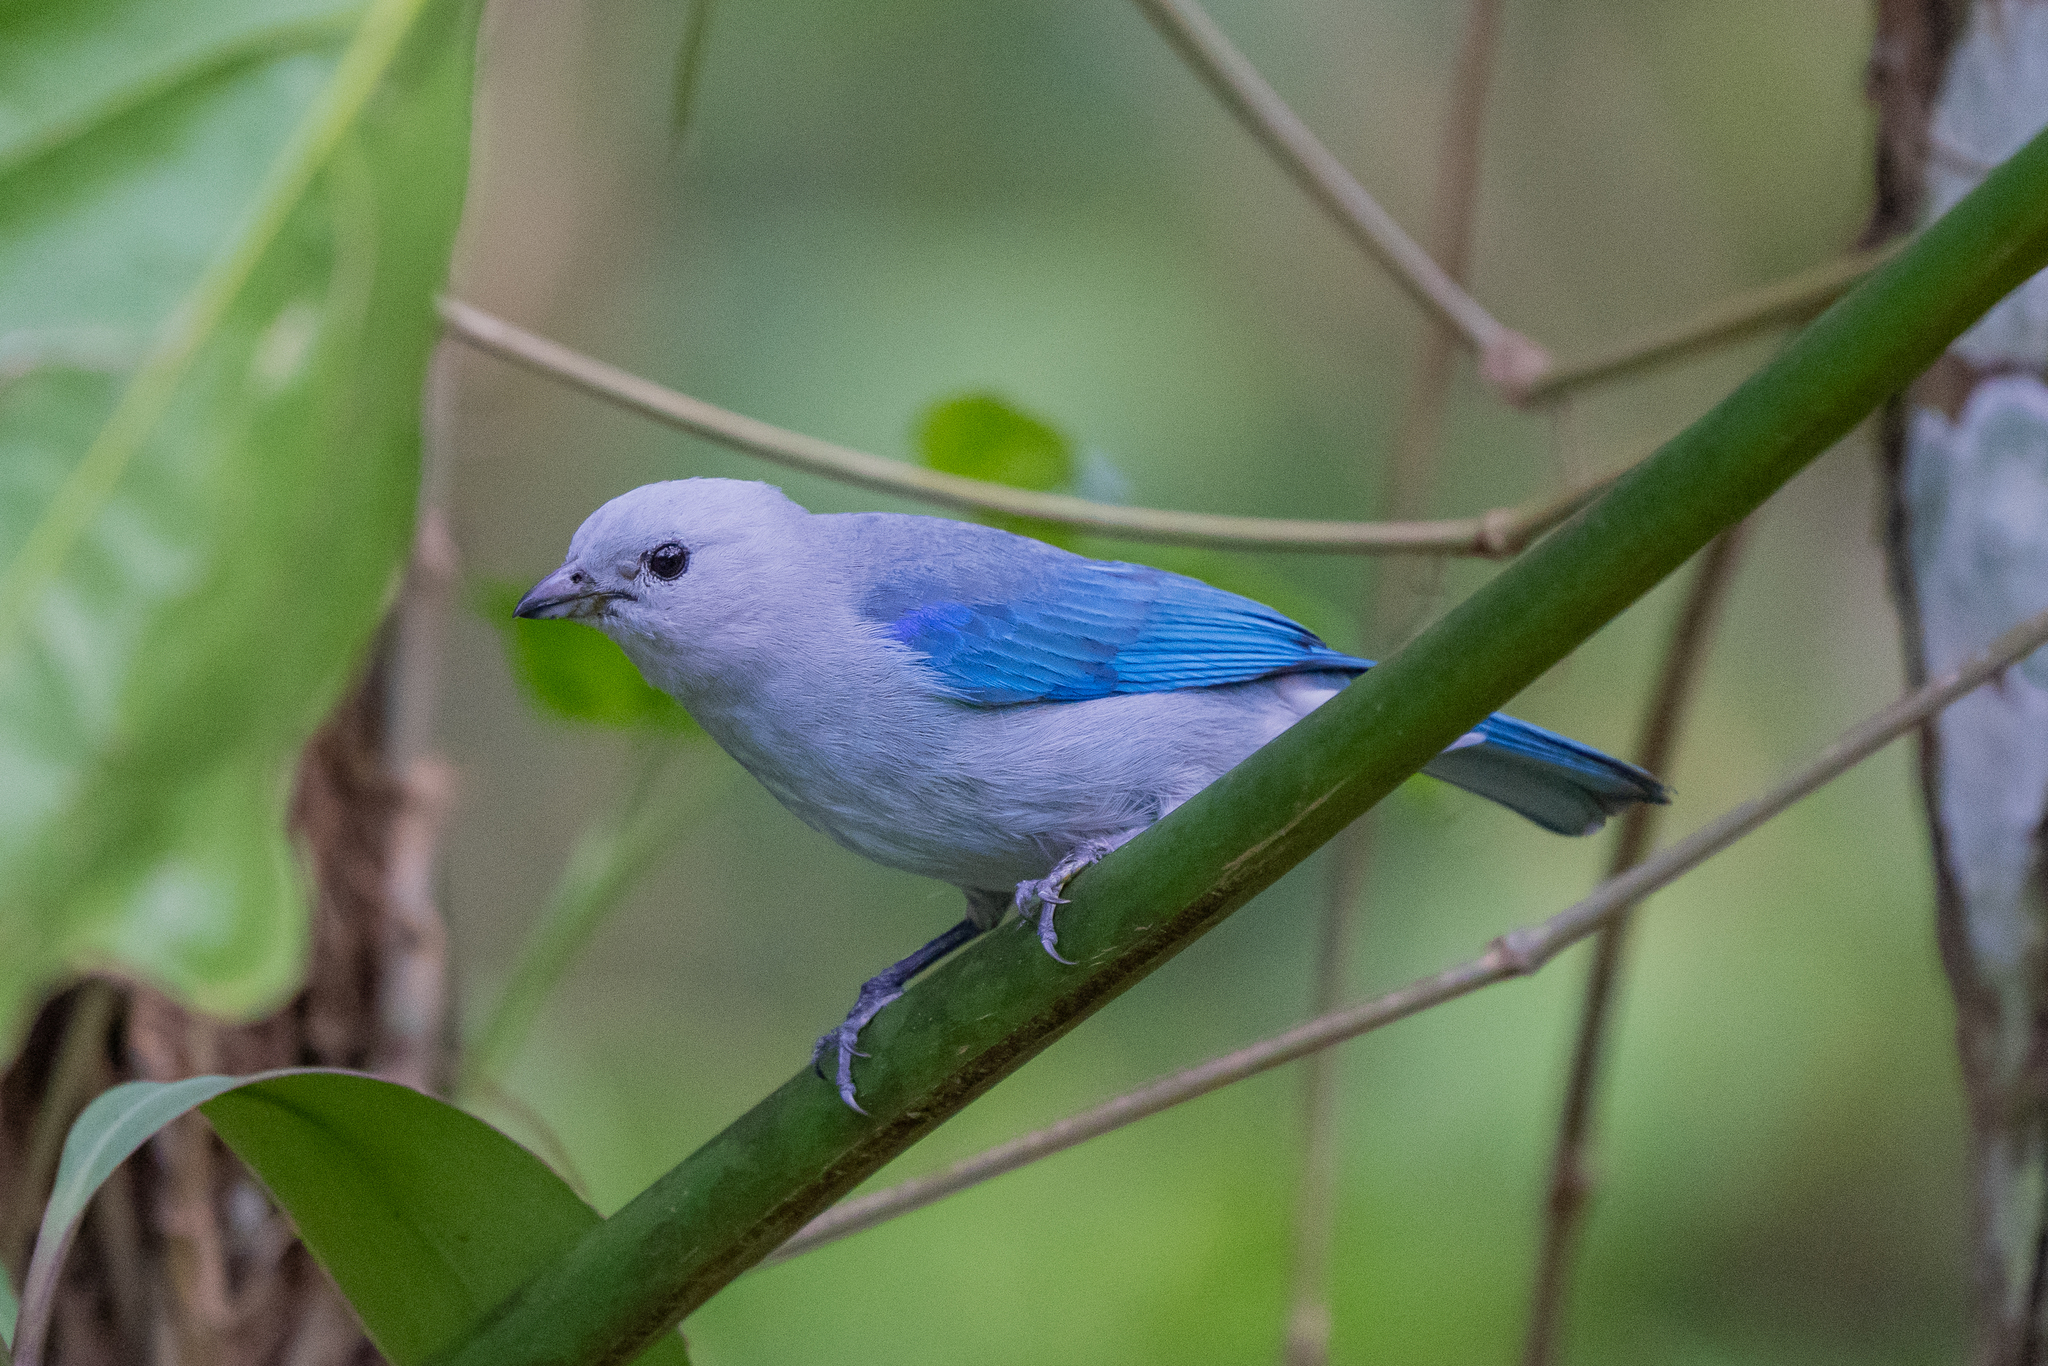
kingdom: Animalia
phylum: Chordata
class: Aves
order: Passeriformes
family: Thraupidae
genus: Thraupis
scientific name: Thraupis episcopus
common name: Blue-grey tanager
